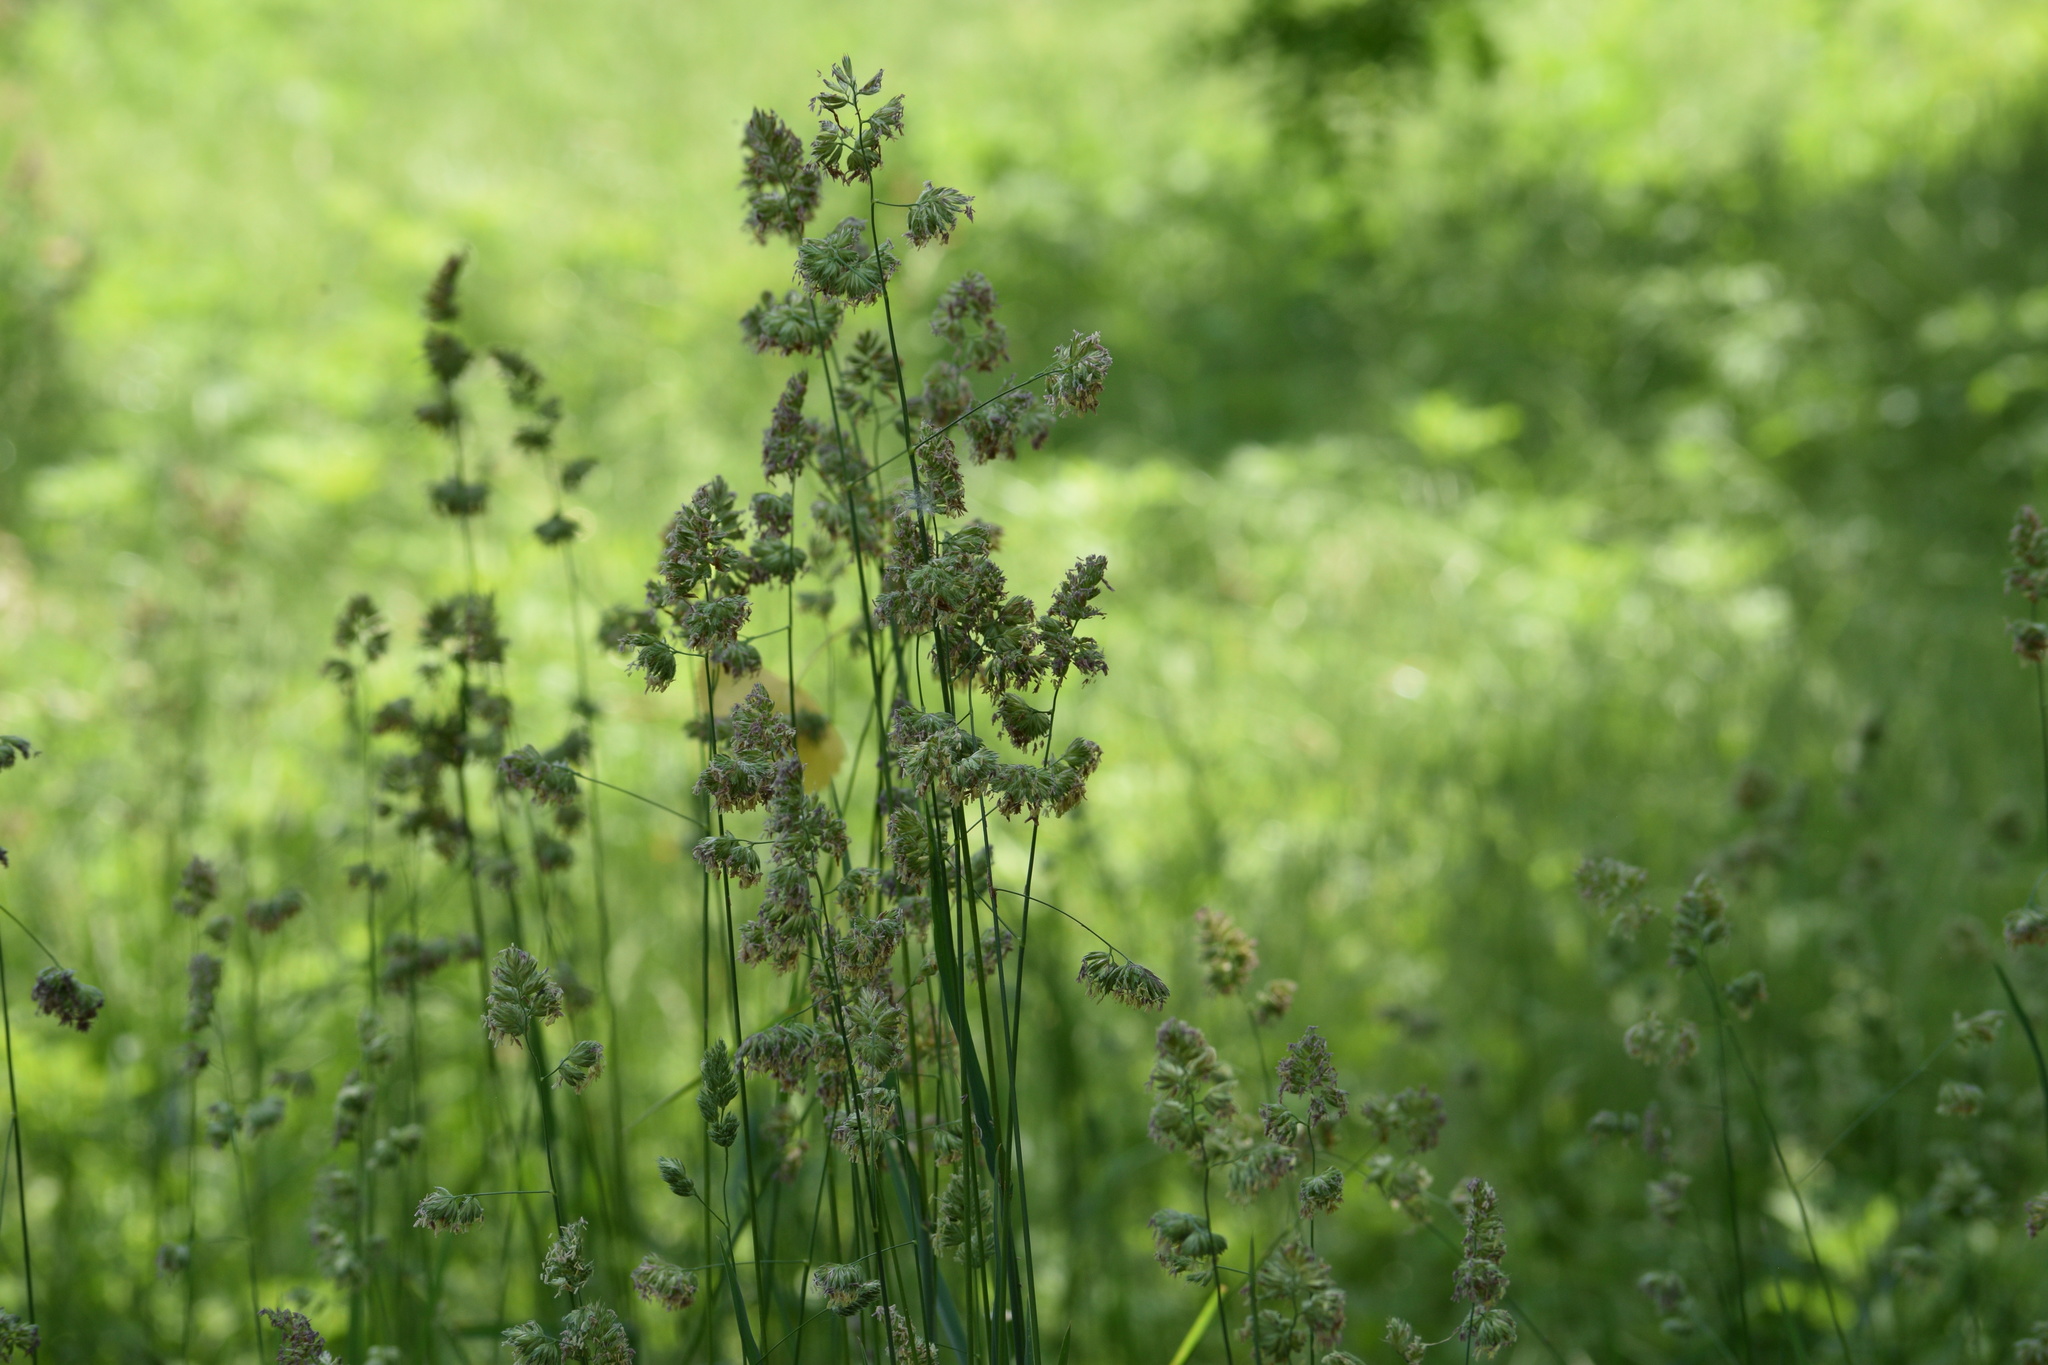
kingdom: Plantae
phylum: Tracheophyta
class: Liliopsida
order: Poales
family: Poaceae
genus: Dactylis
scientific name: Dactylis glomerata
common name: Orchardgrass
